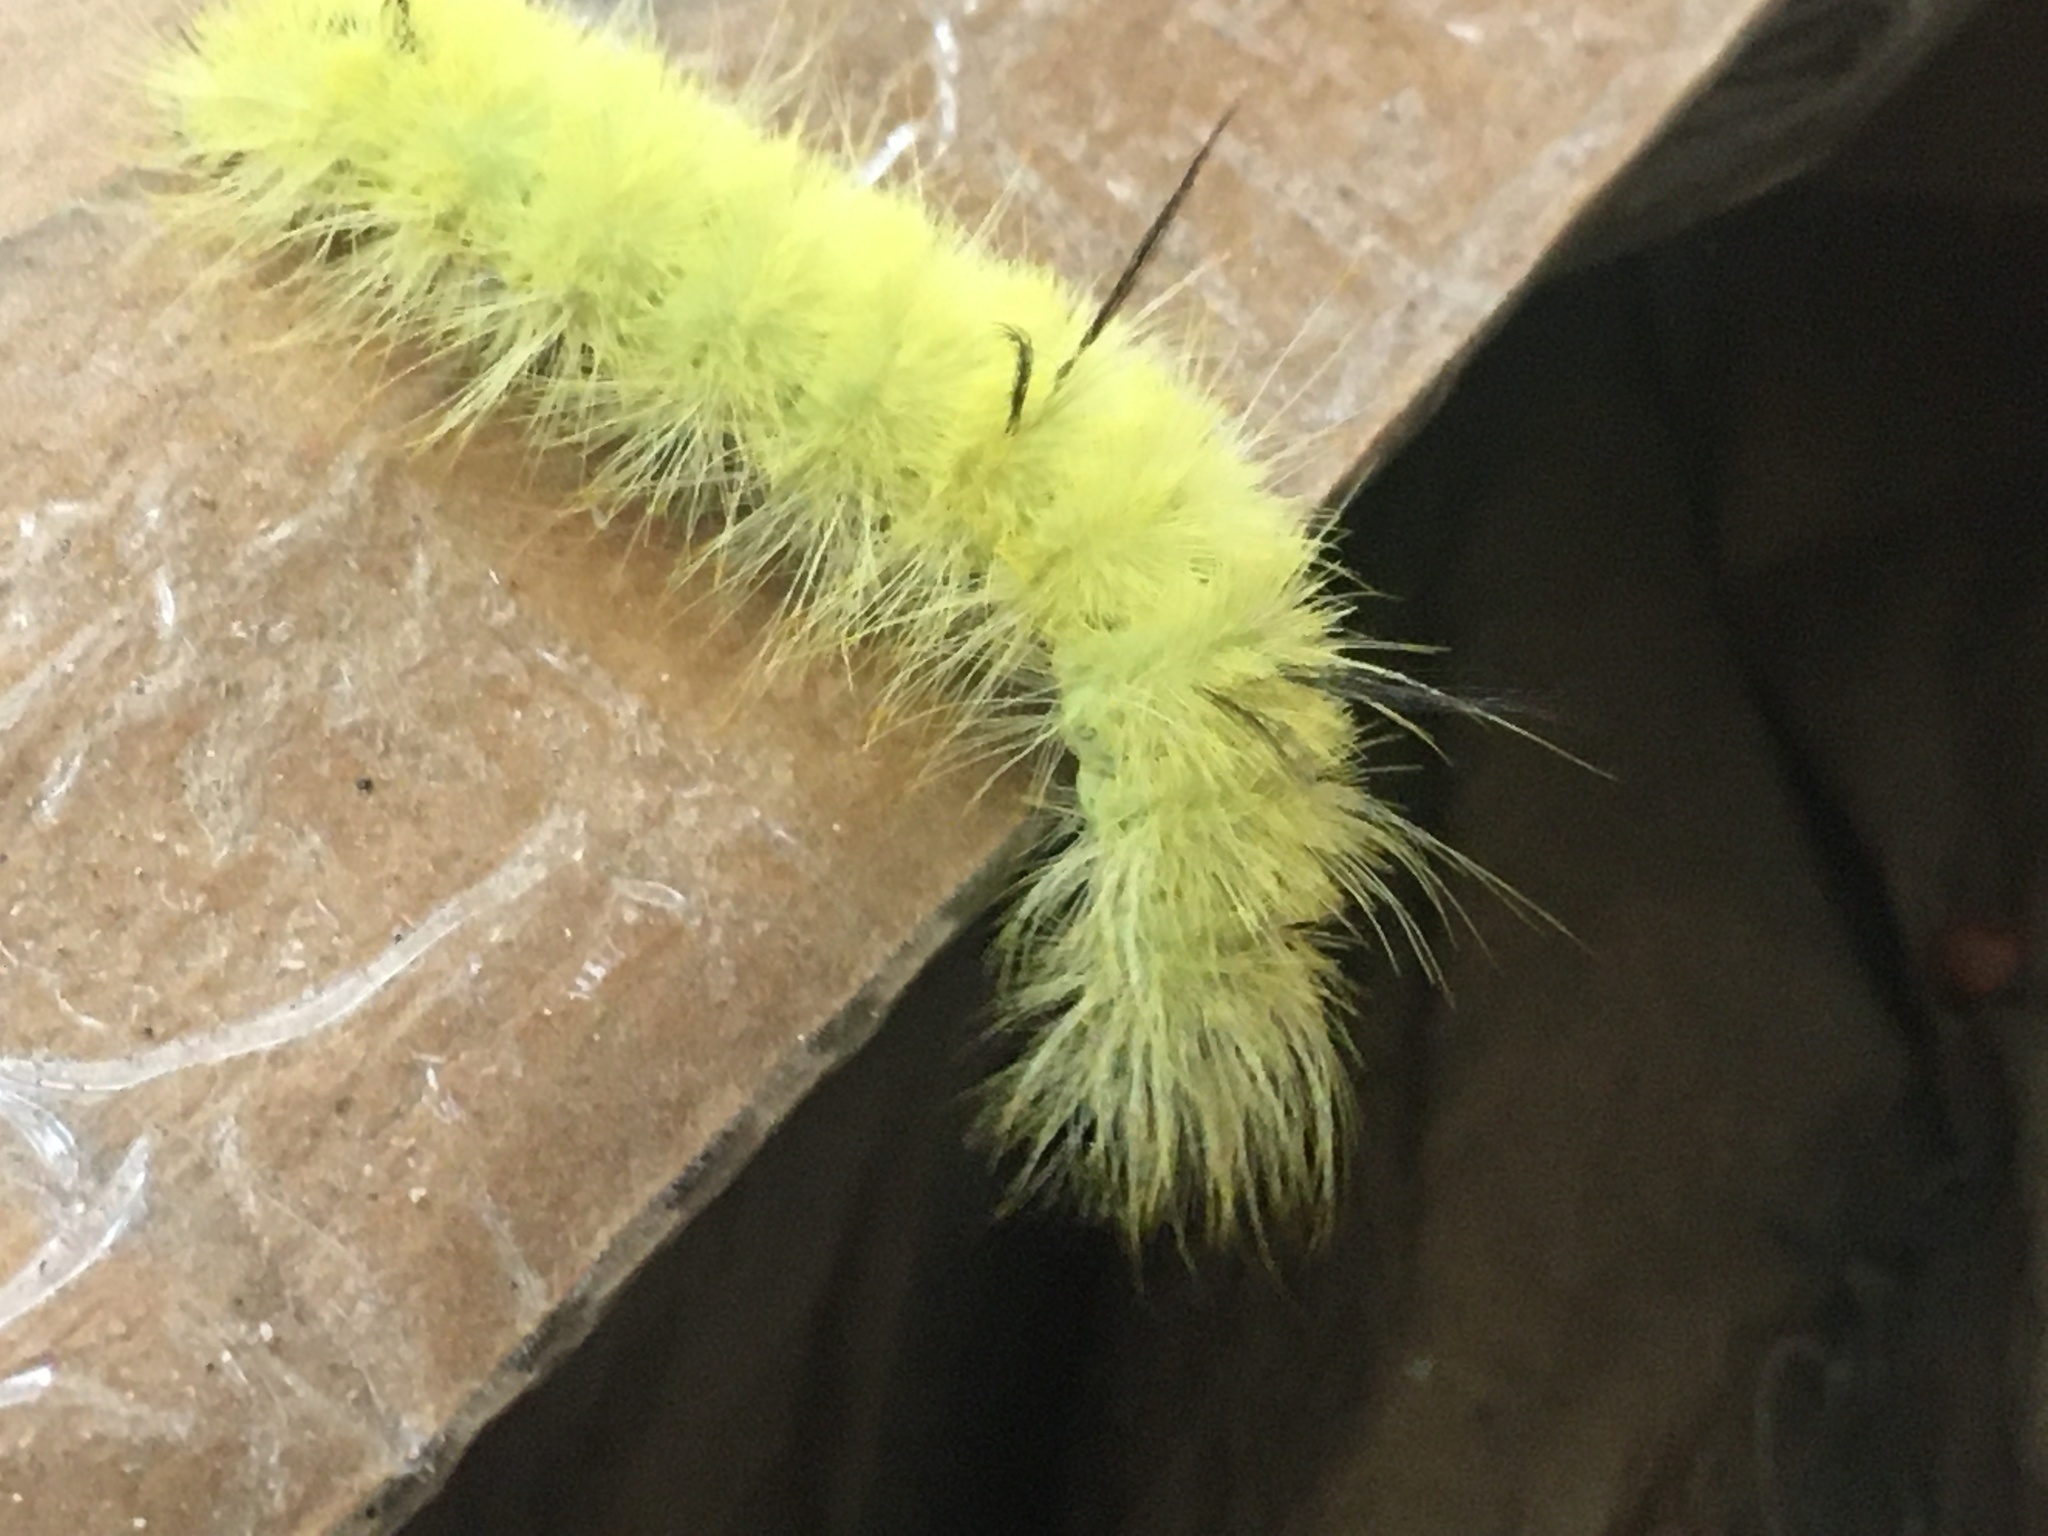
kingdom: Animalia
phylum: Arthropoda
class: Insecta
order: Lepidoptera
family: Noctuidae
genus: Acronicta
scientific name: Acronicta americana
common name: American dagger
